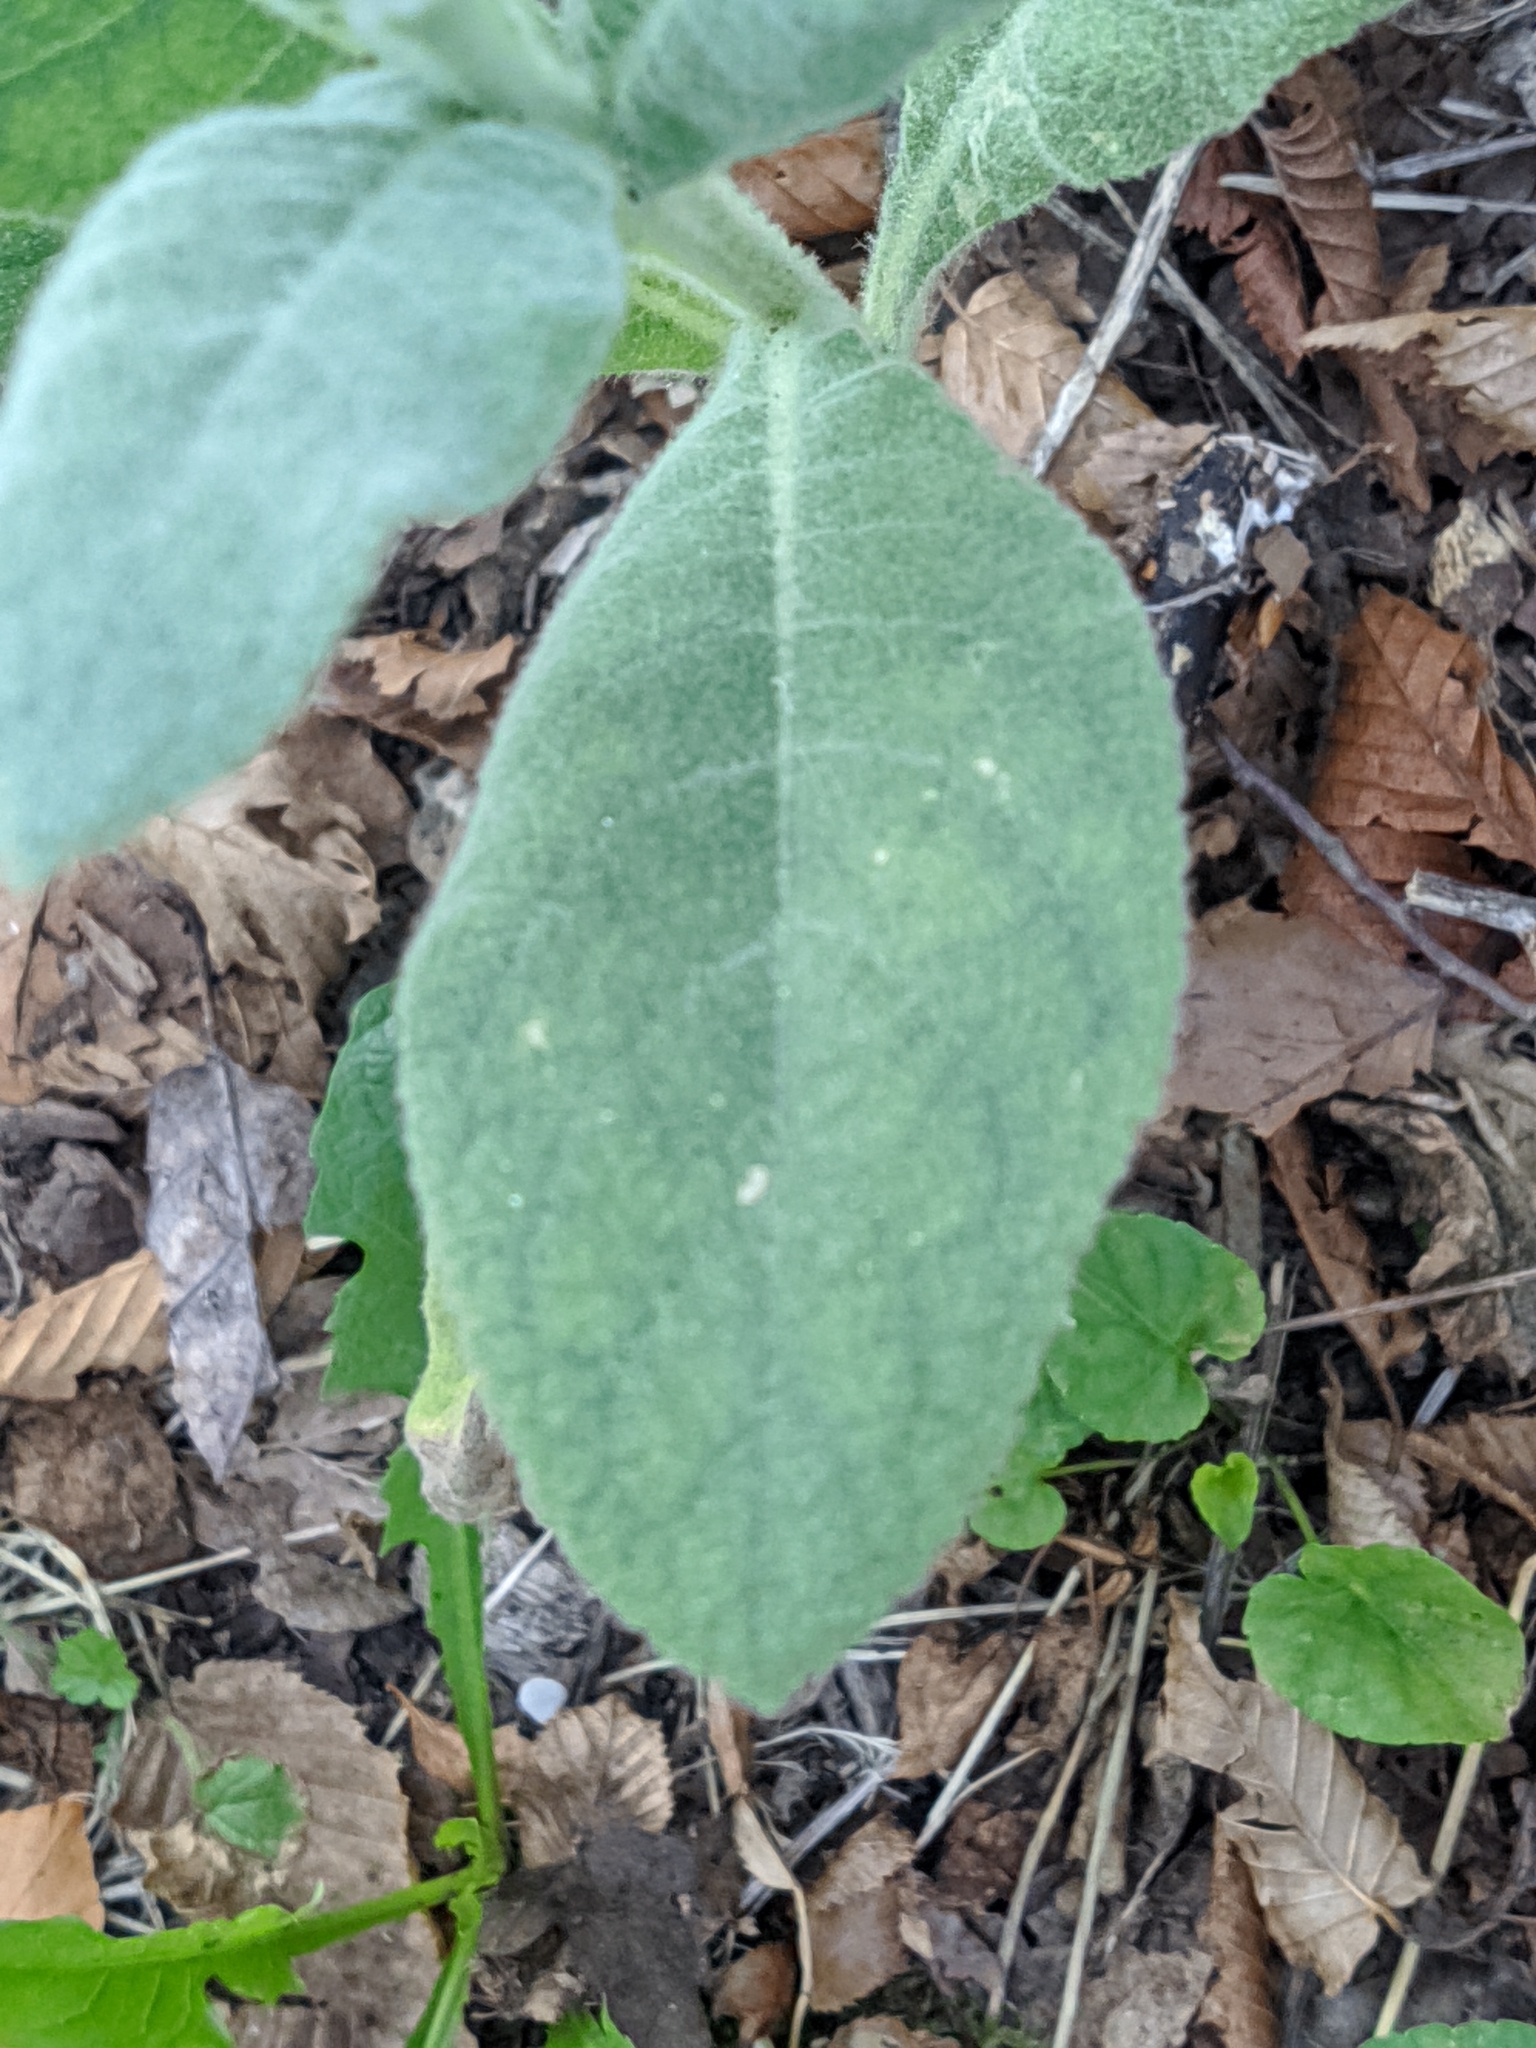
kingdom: Plantae
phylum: Tracheophyta
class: Magnoliopsida
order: Lamiales
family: Scrophulariaceae
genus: Verbascum
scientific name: Verbascum thapsus
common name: Common mullein
